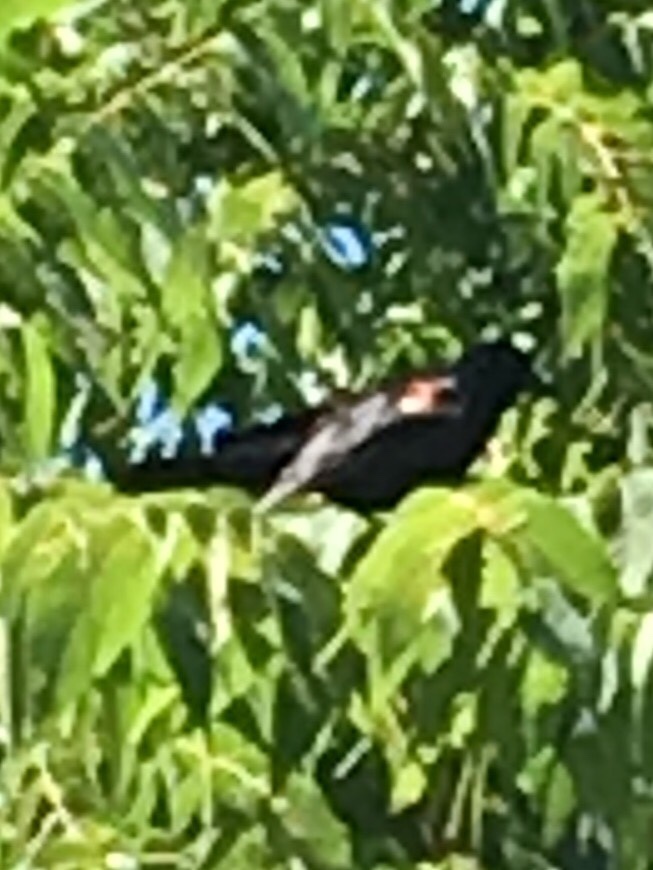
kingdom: Animalia
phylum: Chordata
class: Aves
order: Passeriformes
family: Icteridae
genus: Agelaius
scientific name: Agelaius phoeniceus
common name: Red-winged blackbird
